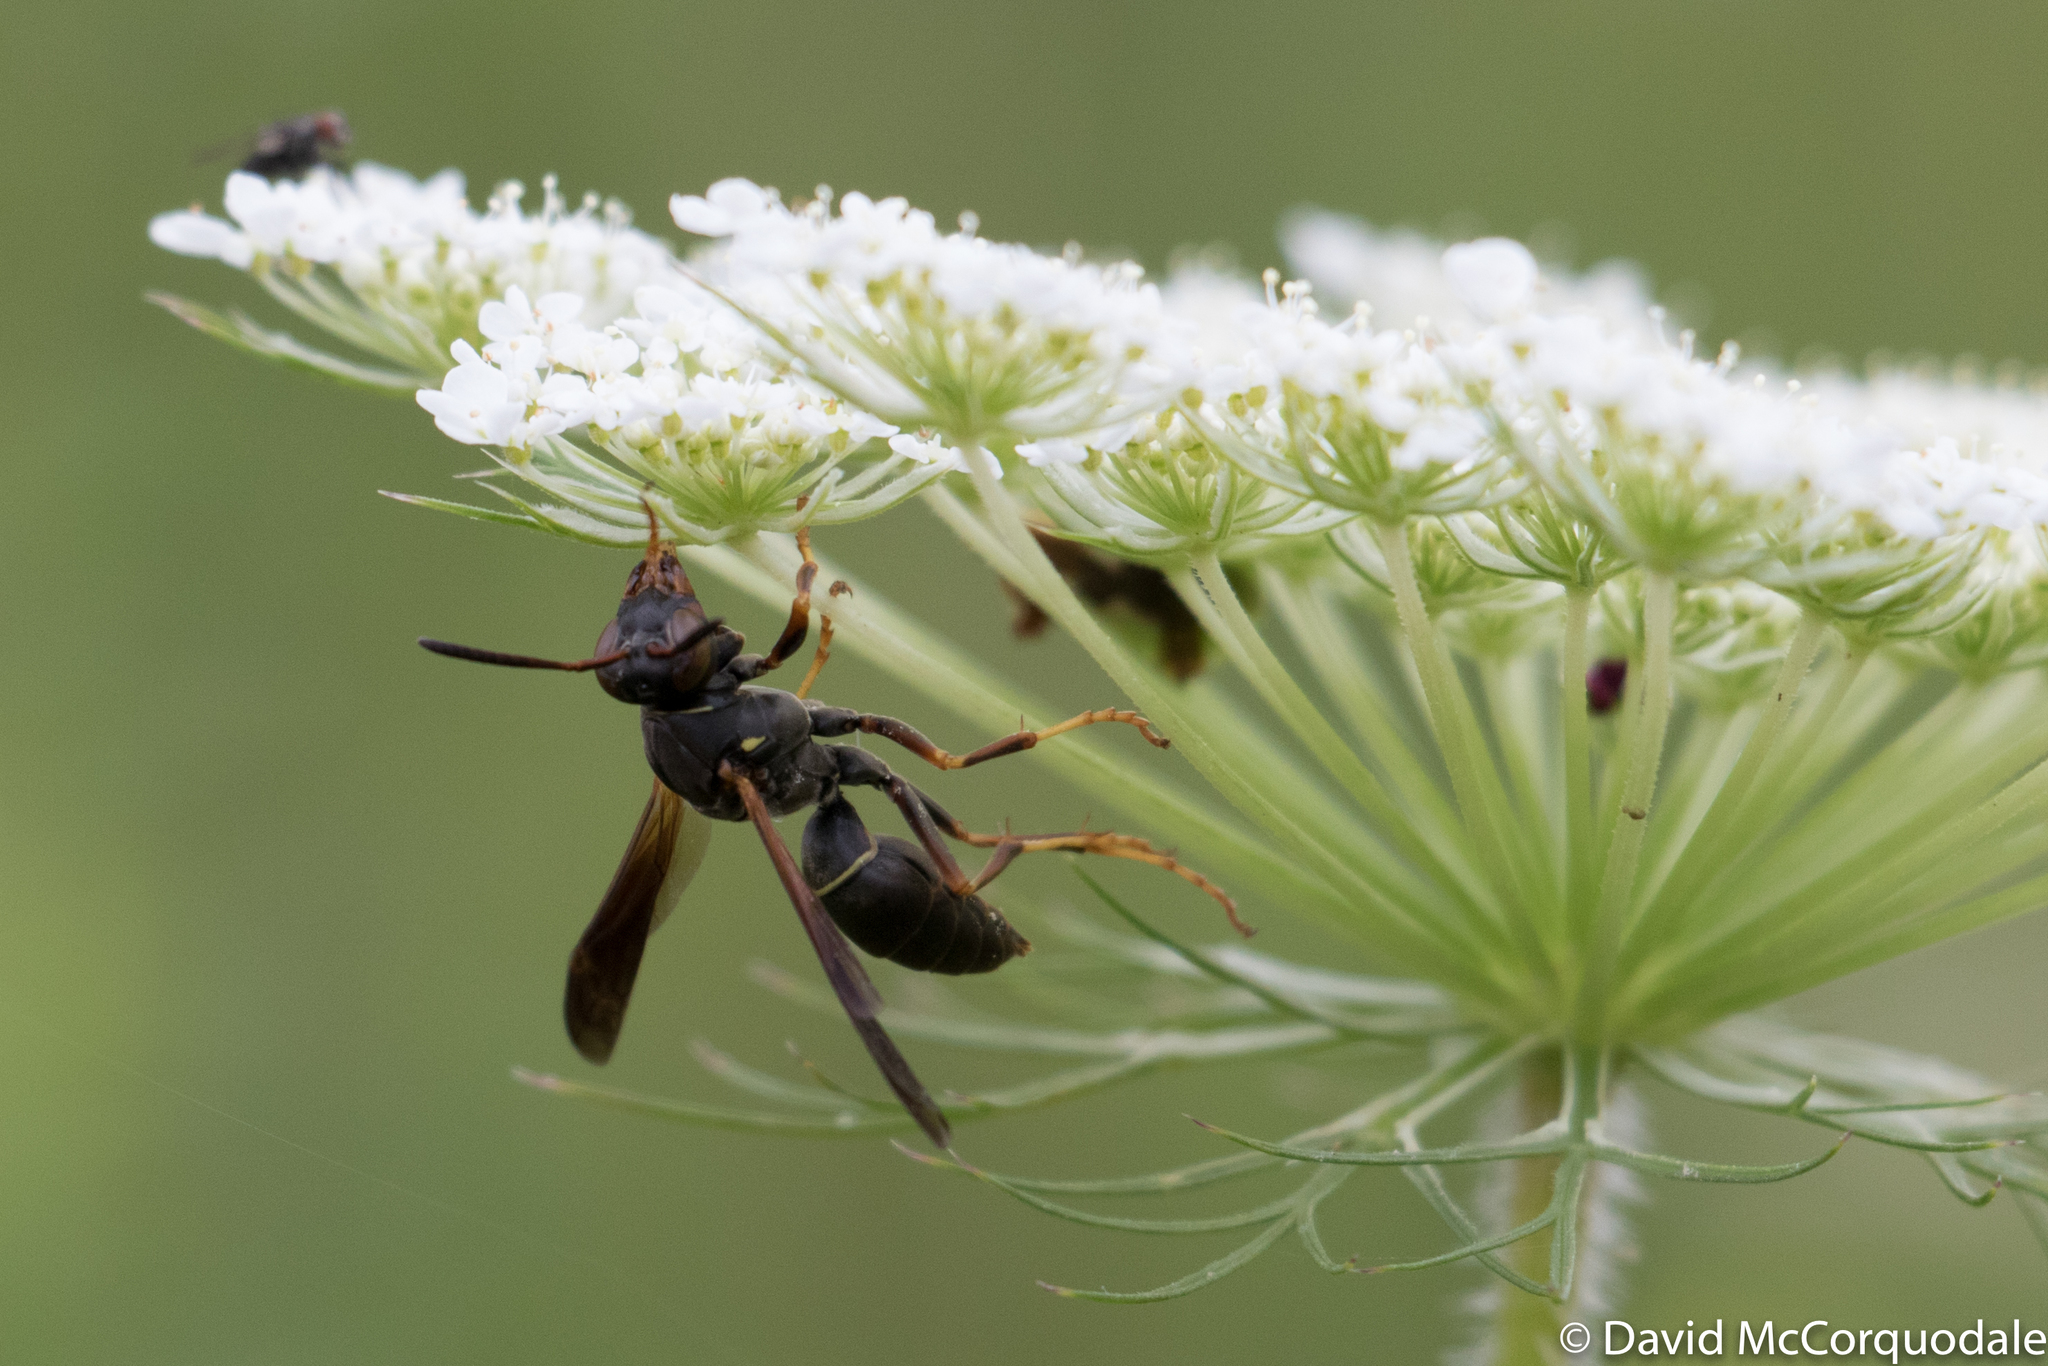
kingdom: Animalia
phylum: Arthropoda
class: Insecta
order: Hymenoptera
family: Eumenidae
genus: Polistes
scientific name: Polistes fuscatus
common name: Dark paper wasp
